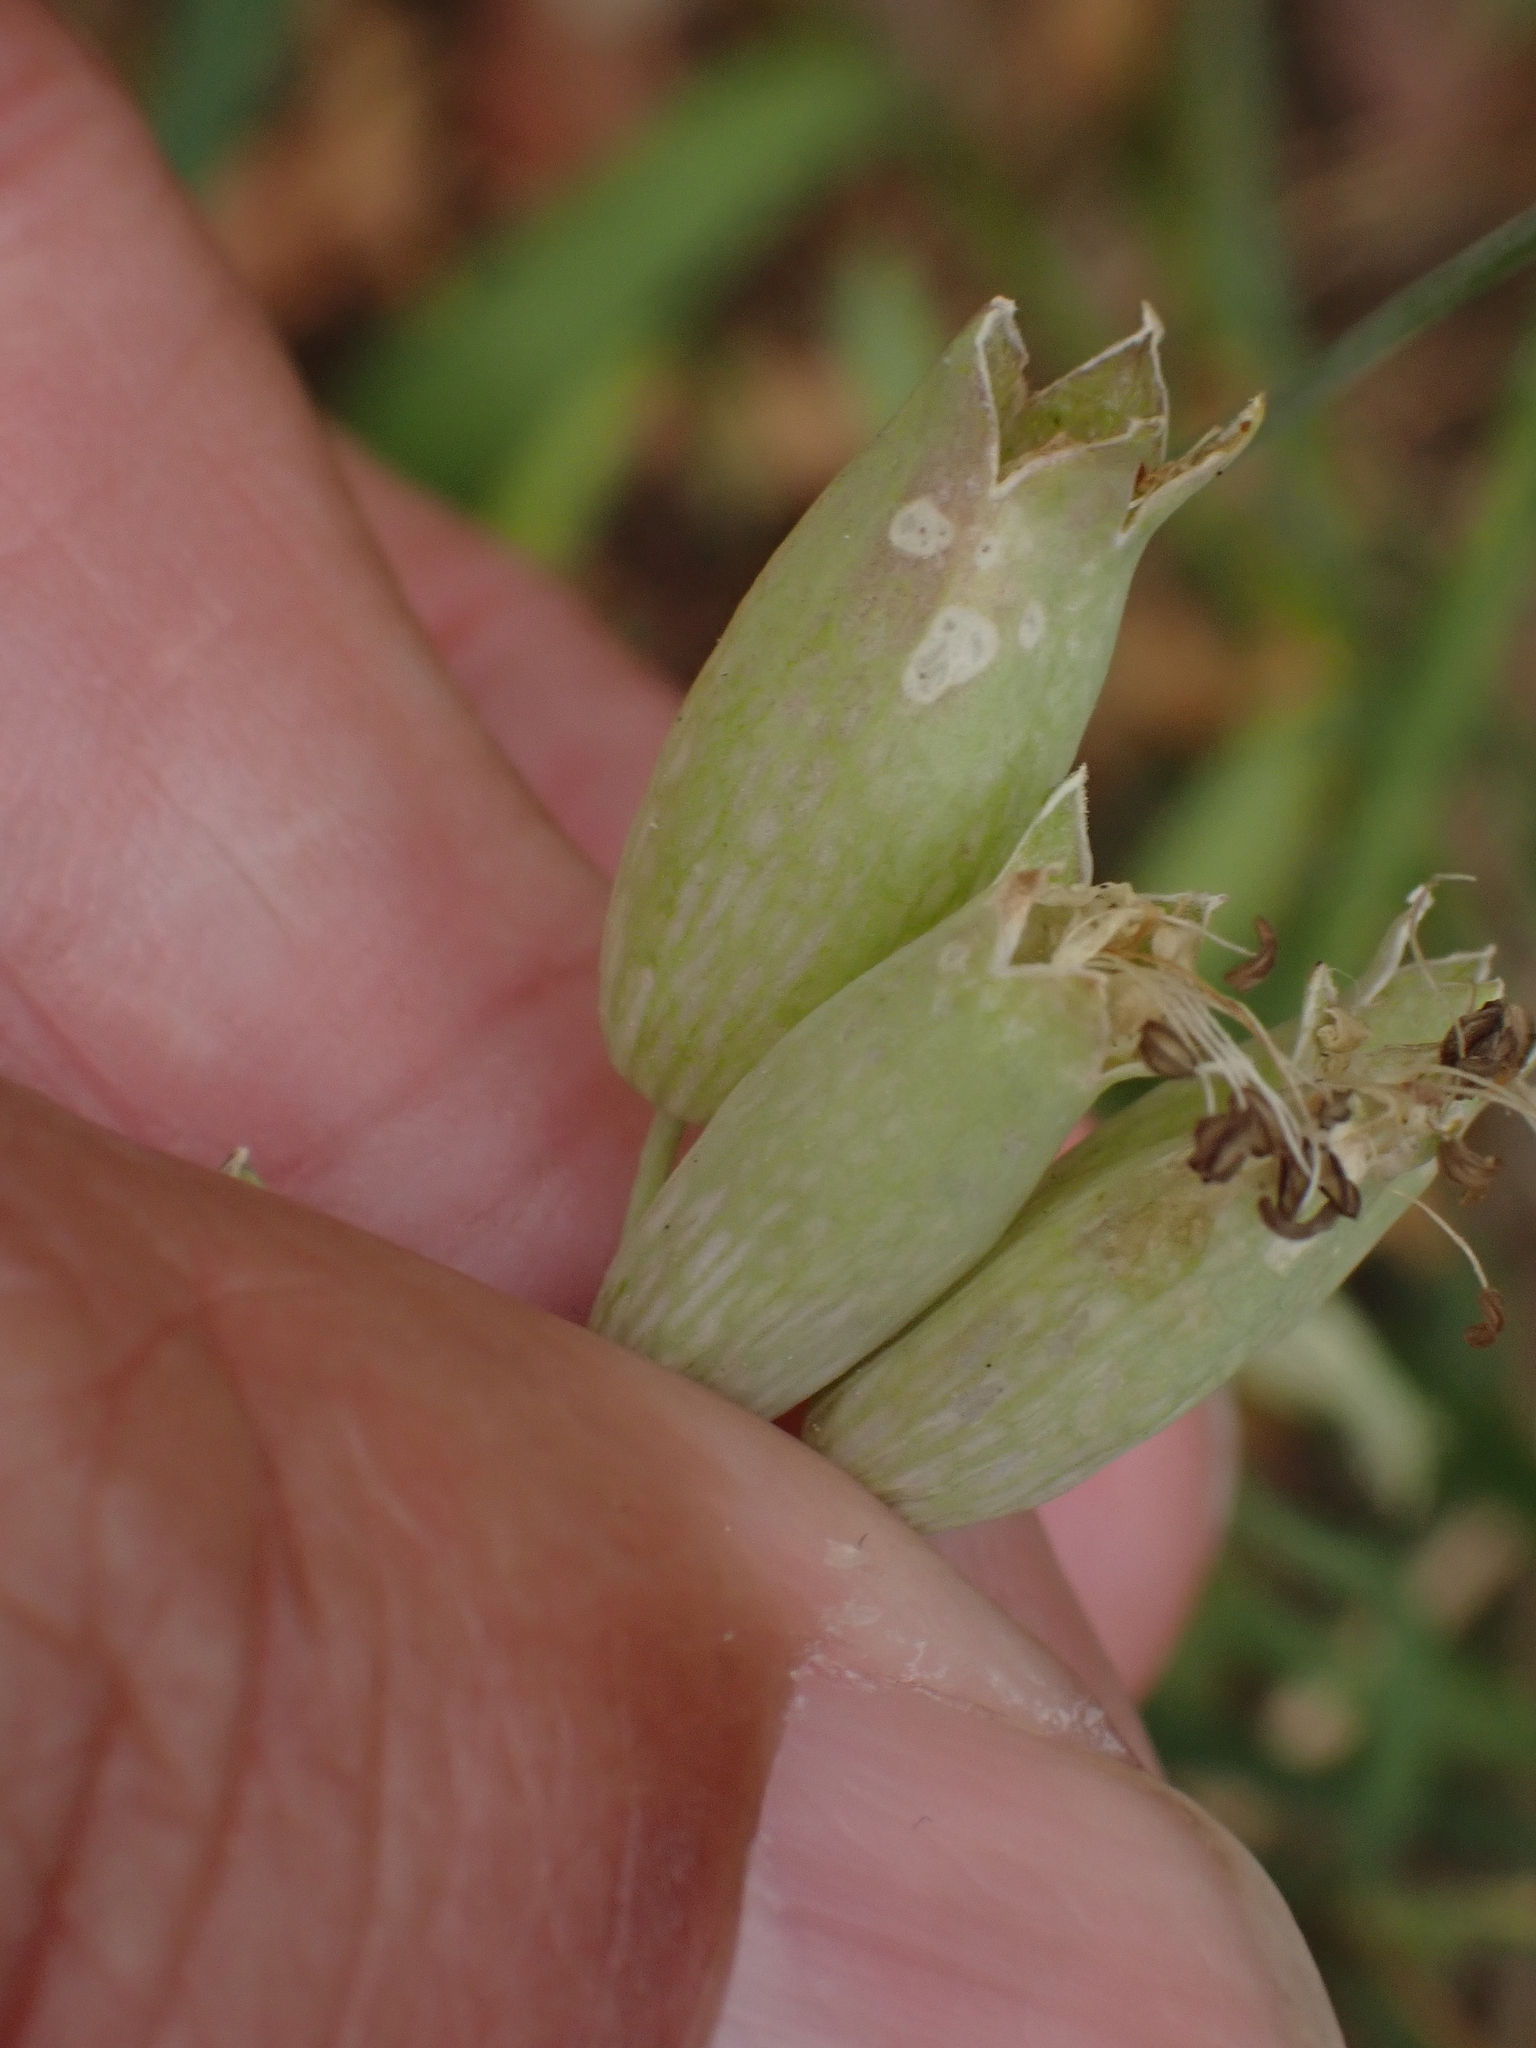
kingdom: Plantae
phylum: Tracheophyta
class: Magnoliopsida
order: Caryophyllales
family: Caryophyllaceae
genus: Silene
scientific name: Silene vulgaris
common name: Bladder campion
